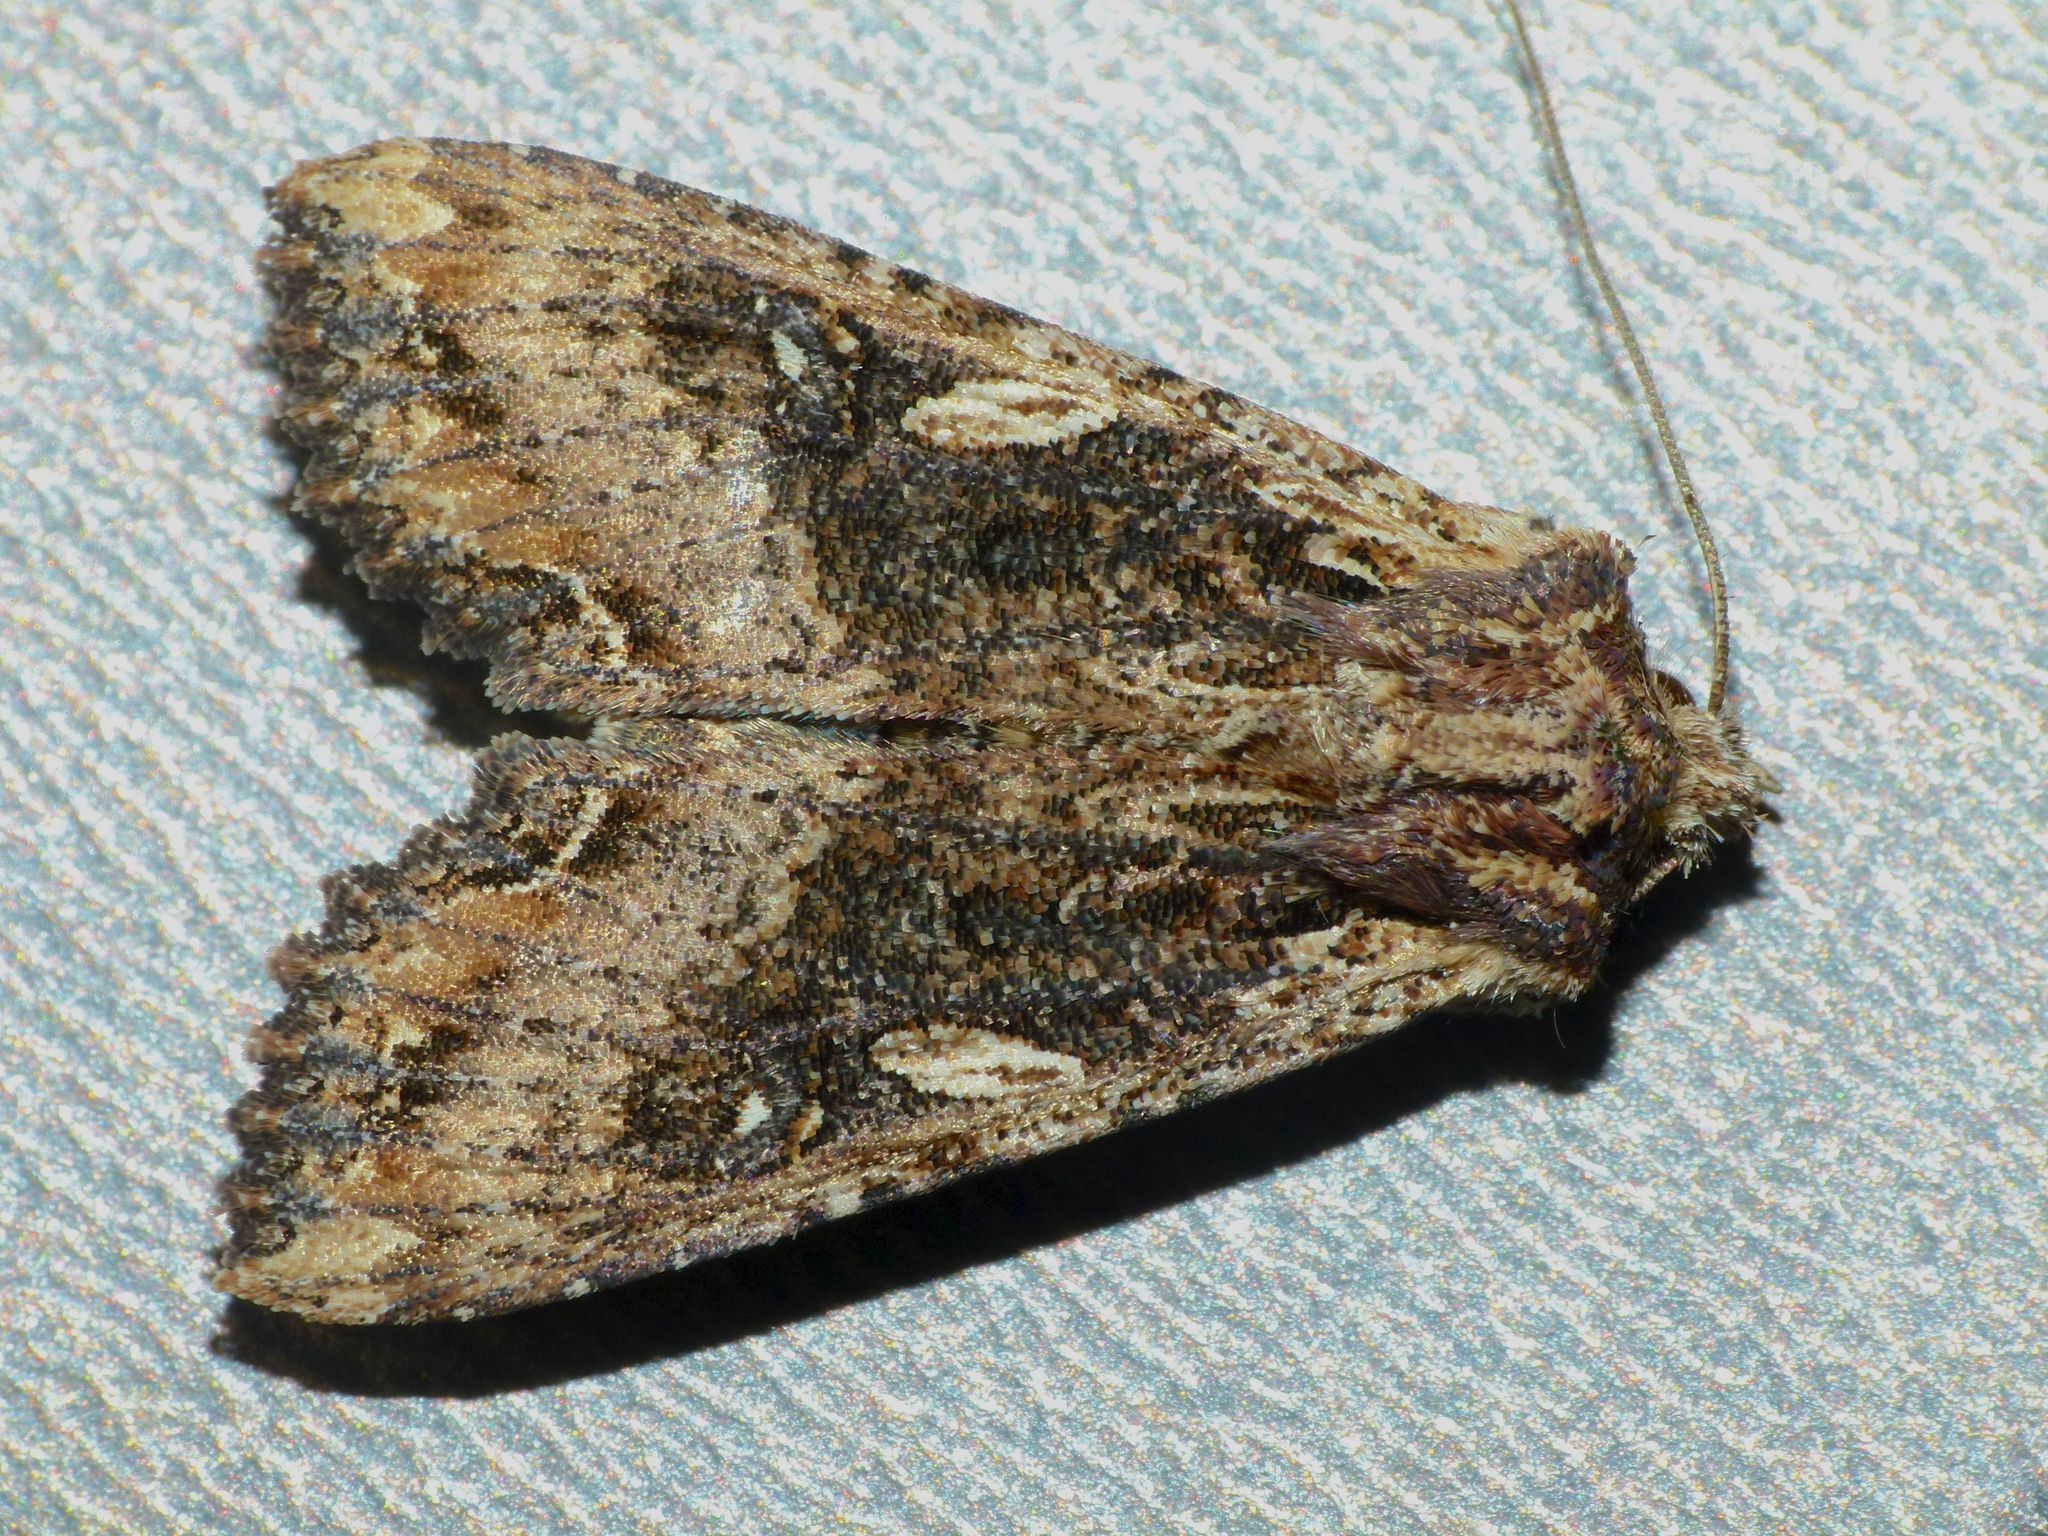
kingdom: Animalia
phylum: Arthropoda
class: Insecta
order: Lepidoptera
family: Noctuidae
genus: Meterana
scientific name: Meterana stipata
